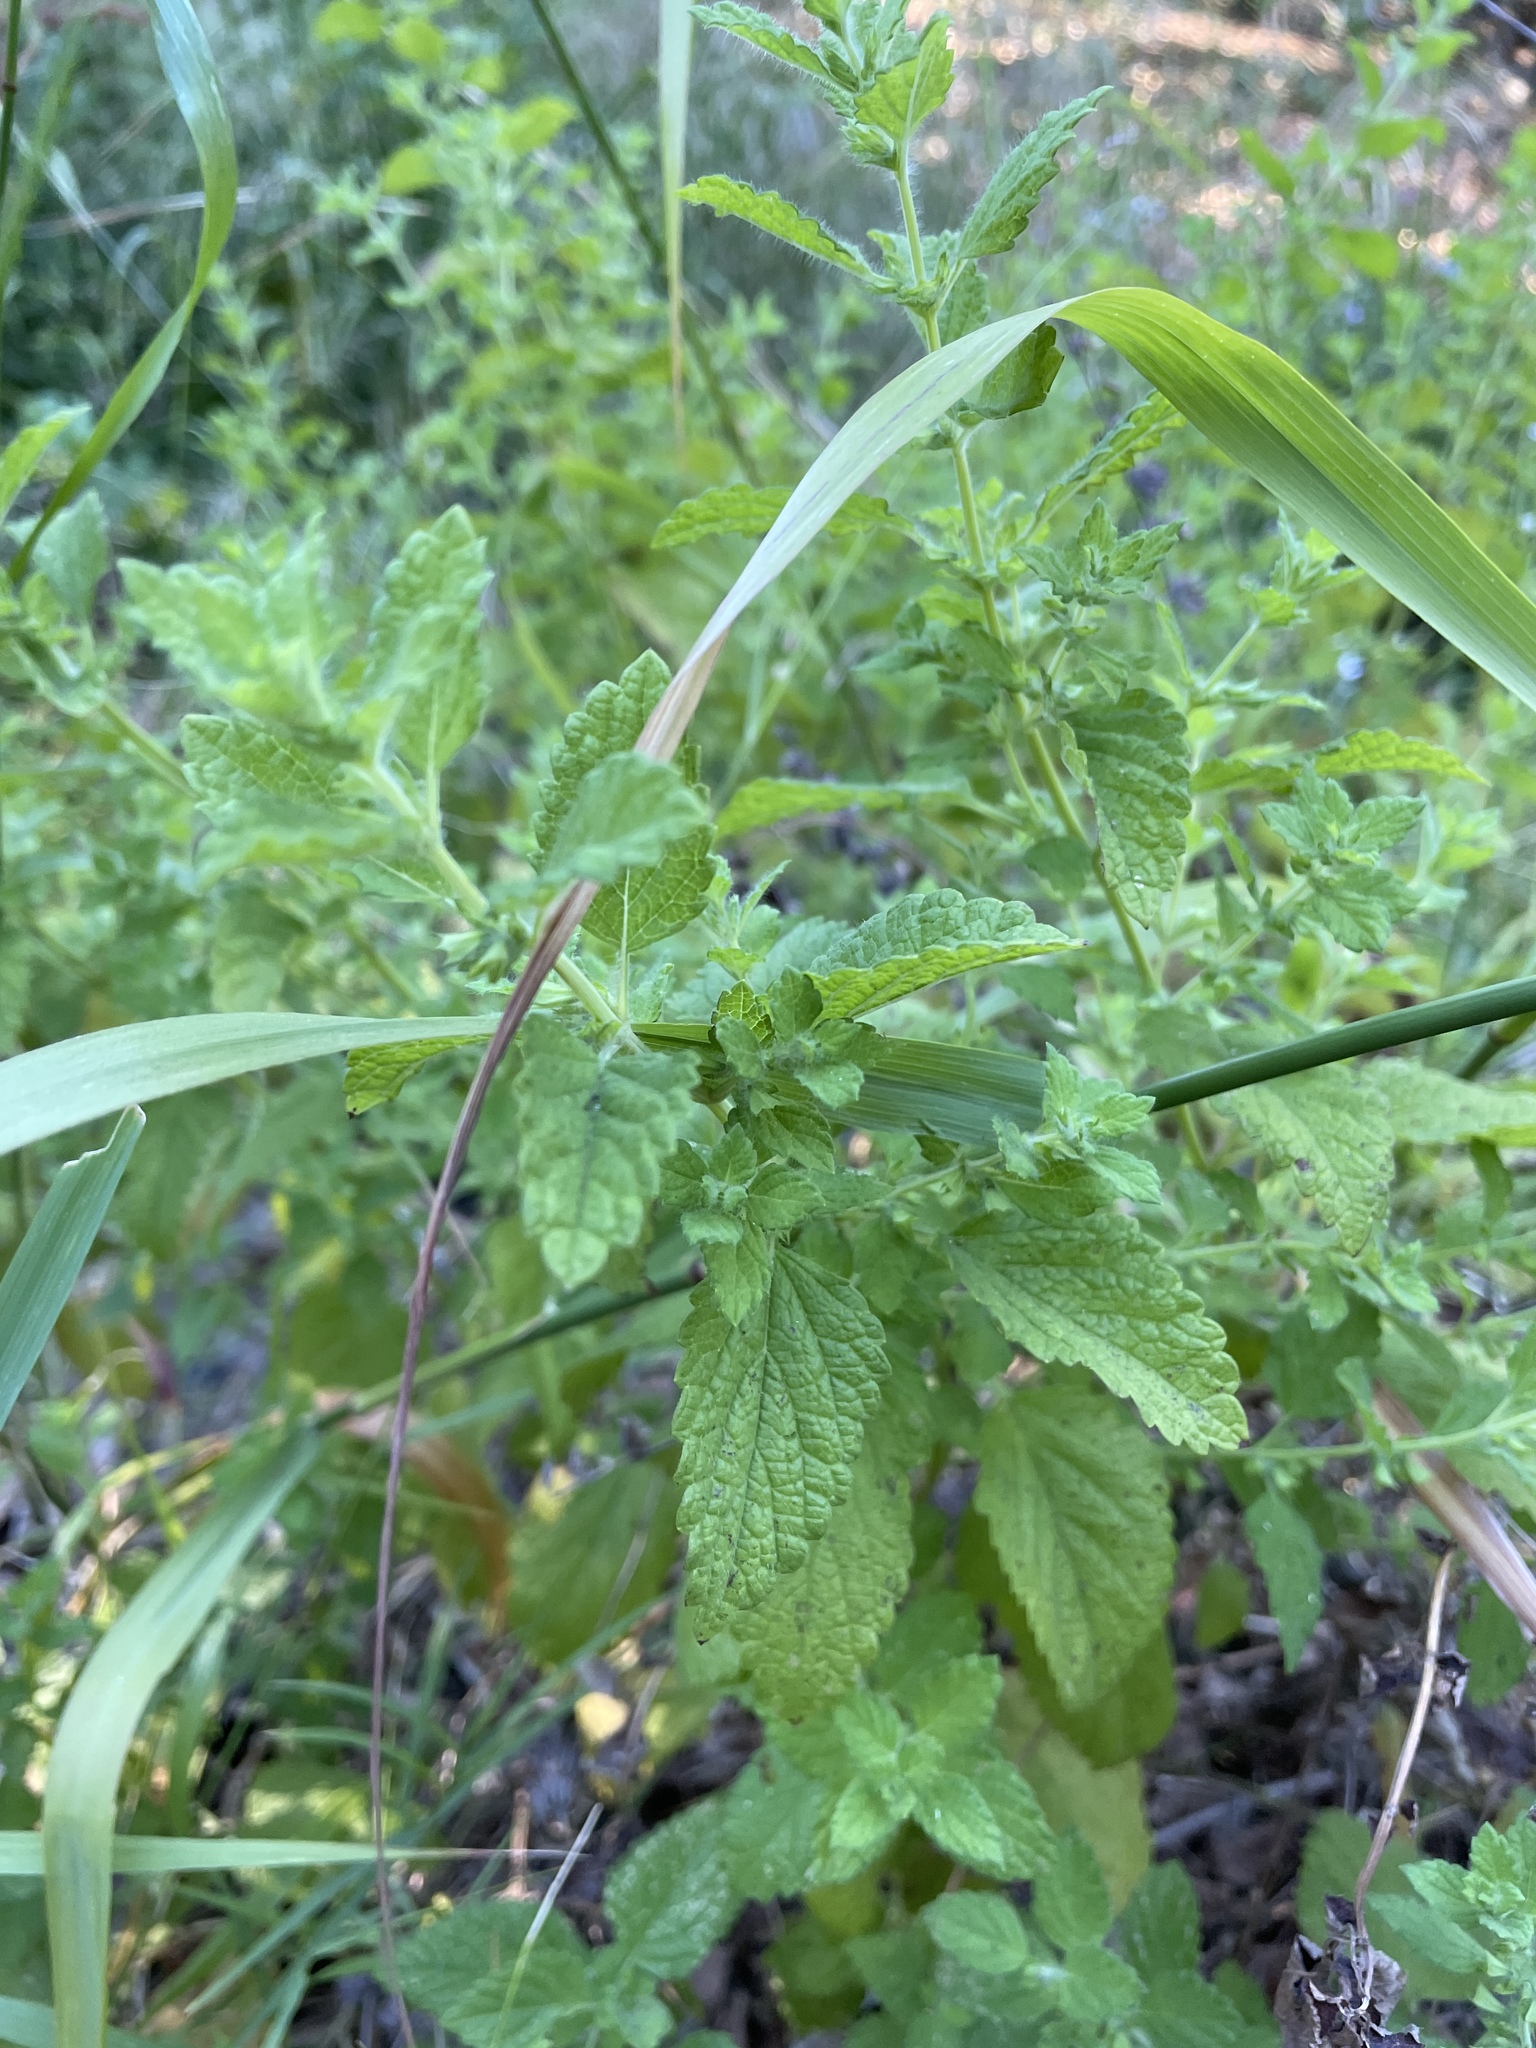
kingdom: Plantae
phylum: Tracheophyta
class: Magnoliopsida
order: Lamiales
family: Lamiaceae
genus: Melissa
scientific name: Melissa officinalis
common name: Balm
